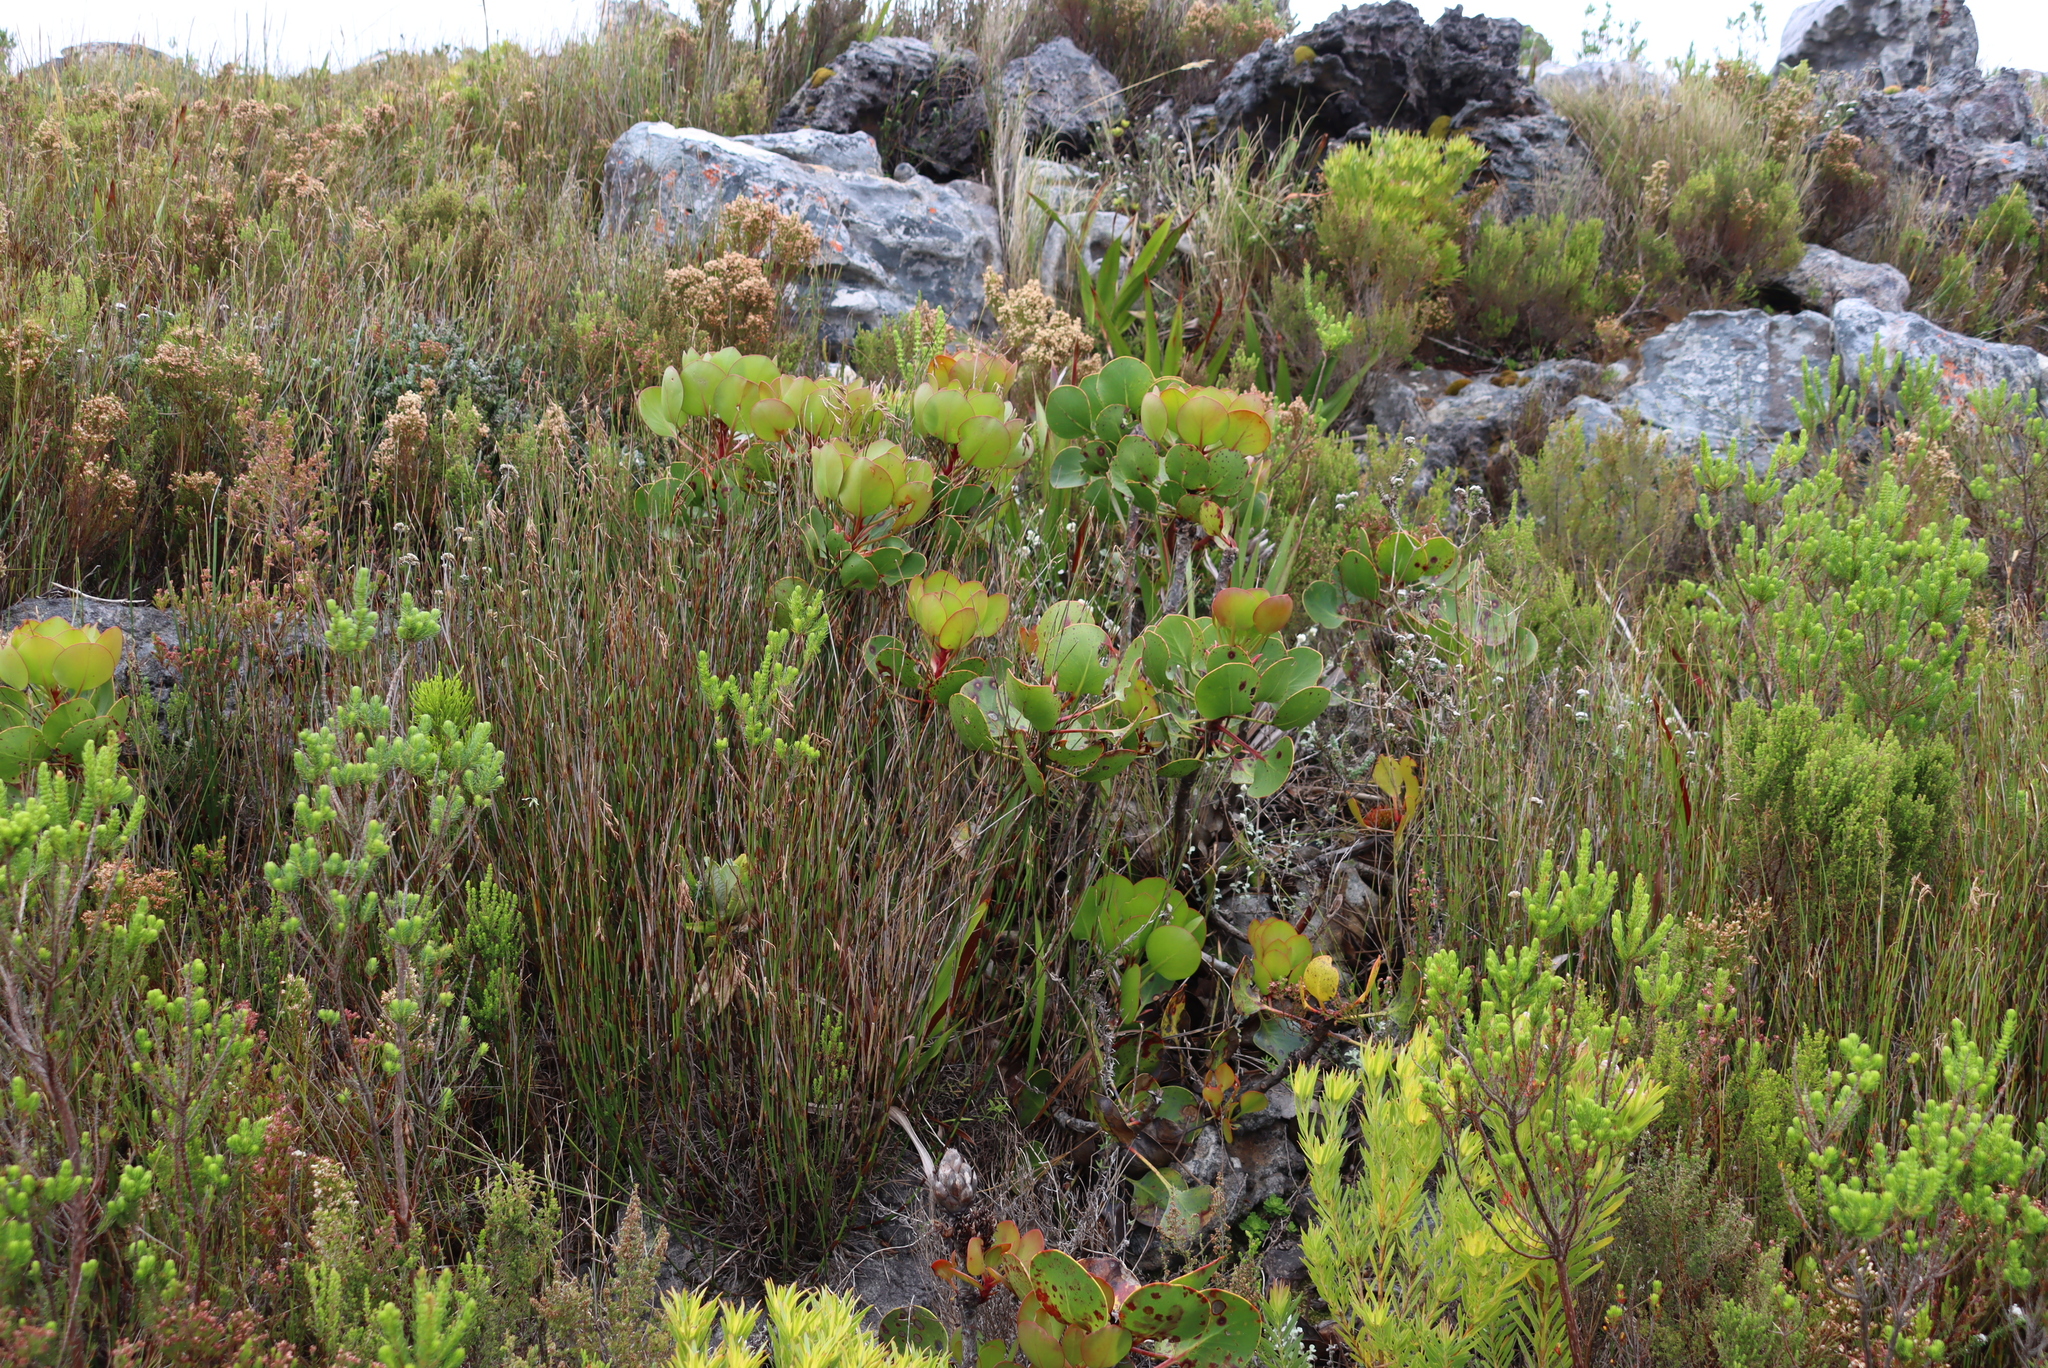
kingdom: Plantae
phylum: Tracheophyta
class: Magnoliopsida
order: Proteales
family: Proteaceae
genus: Protea
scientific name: Protea cynaroides
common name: King protea
